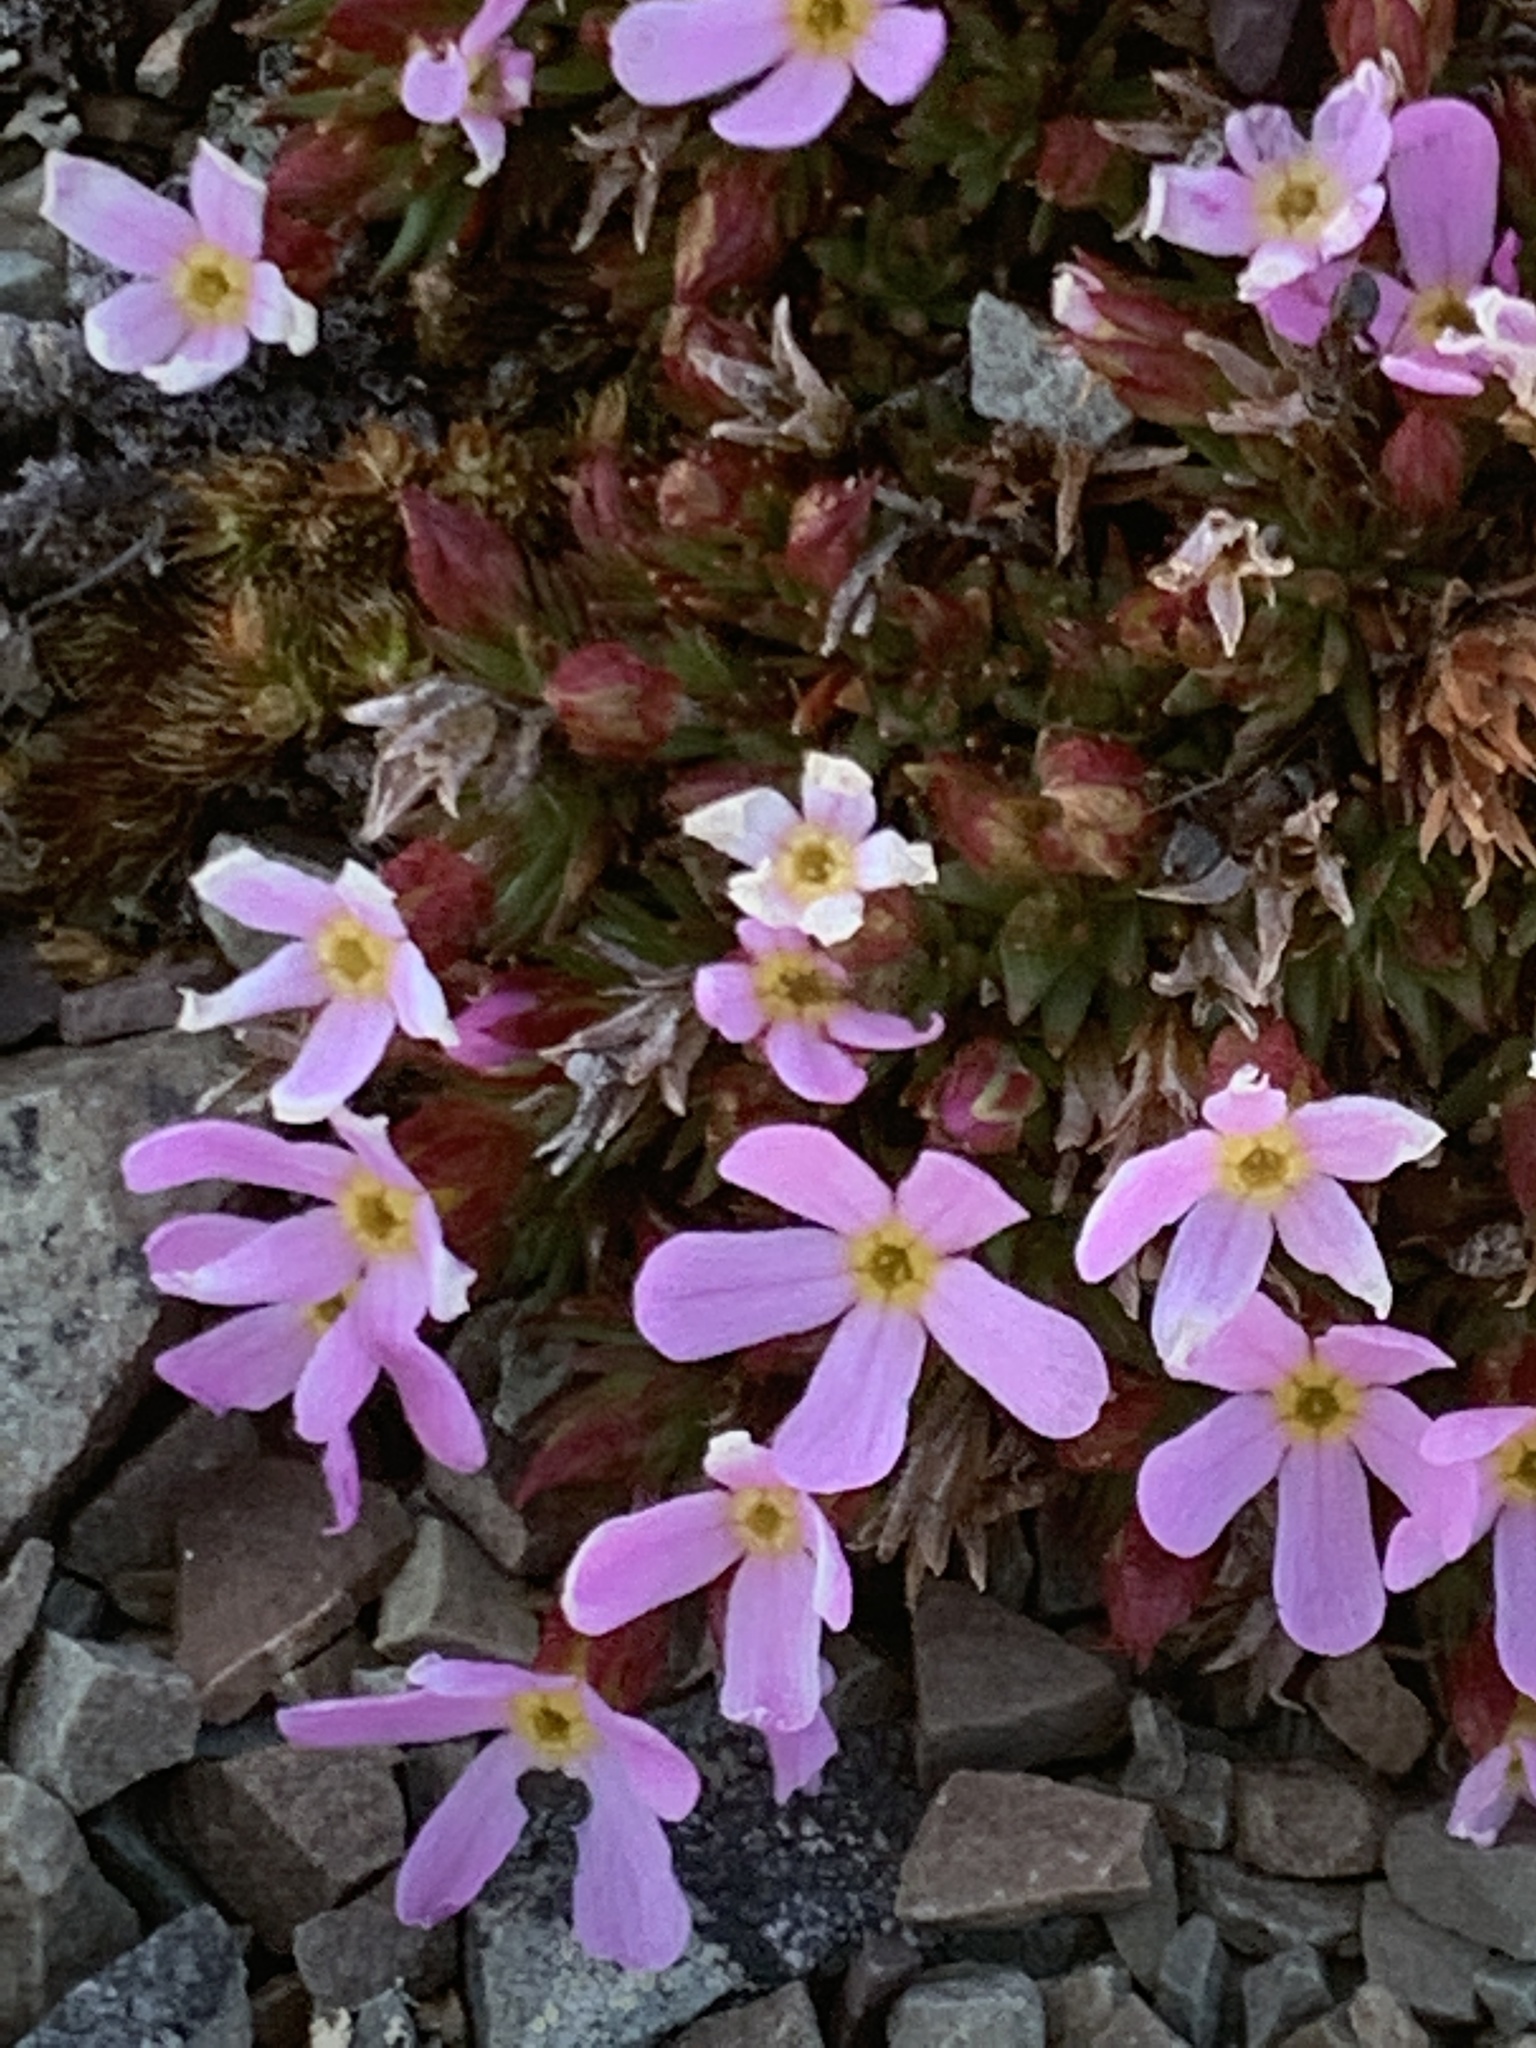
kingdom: Plantae
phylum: Tracheophyta
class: Magnoliopsida
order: Ericales
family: Primulaceae
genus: Androsace
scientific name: Androsace montana
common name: Rocky mountain dwarf-primrose
